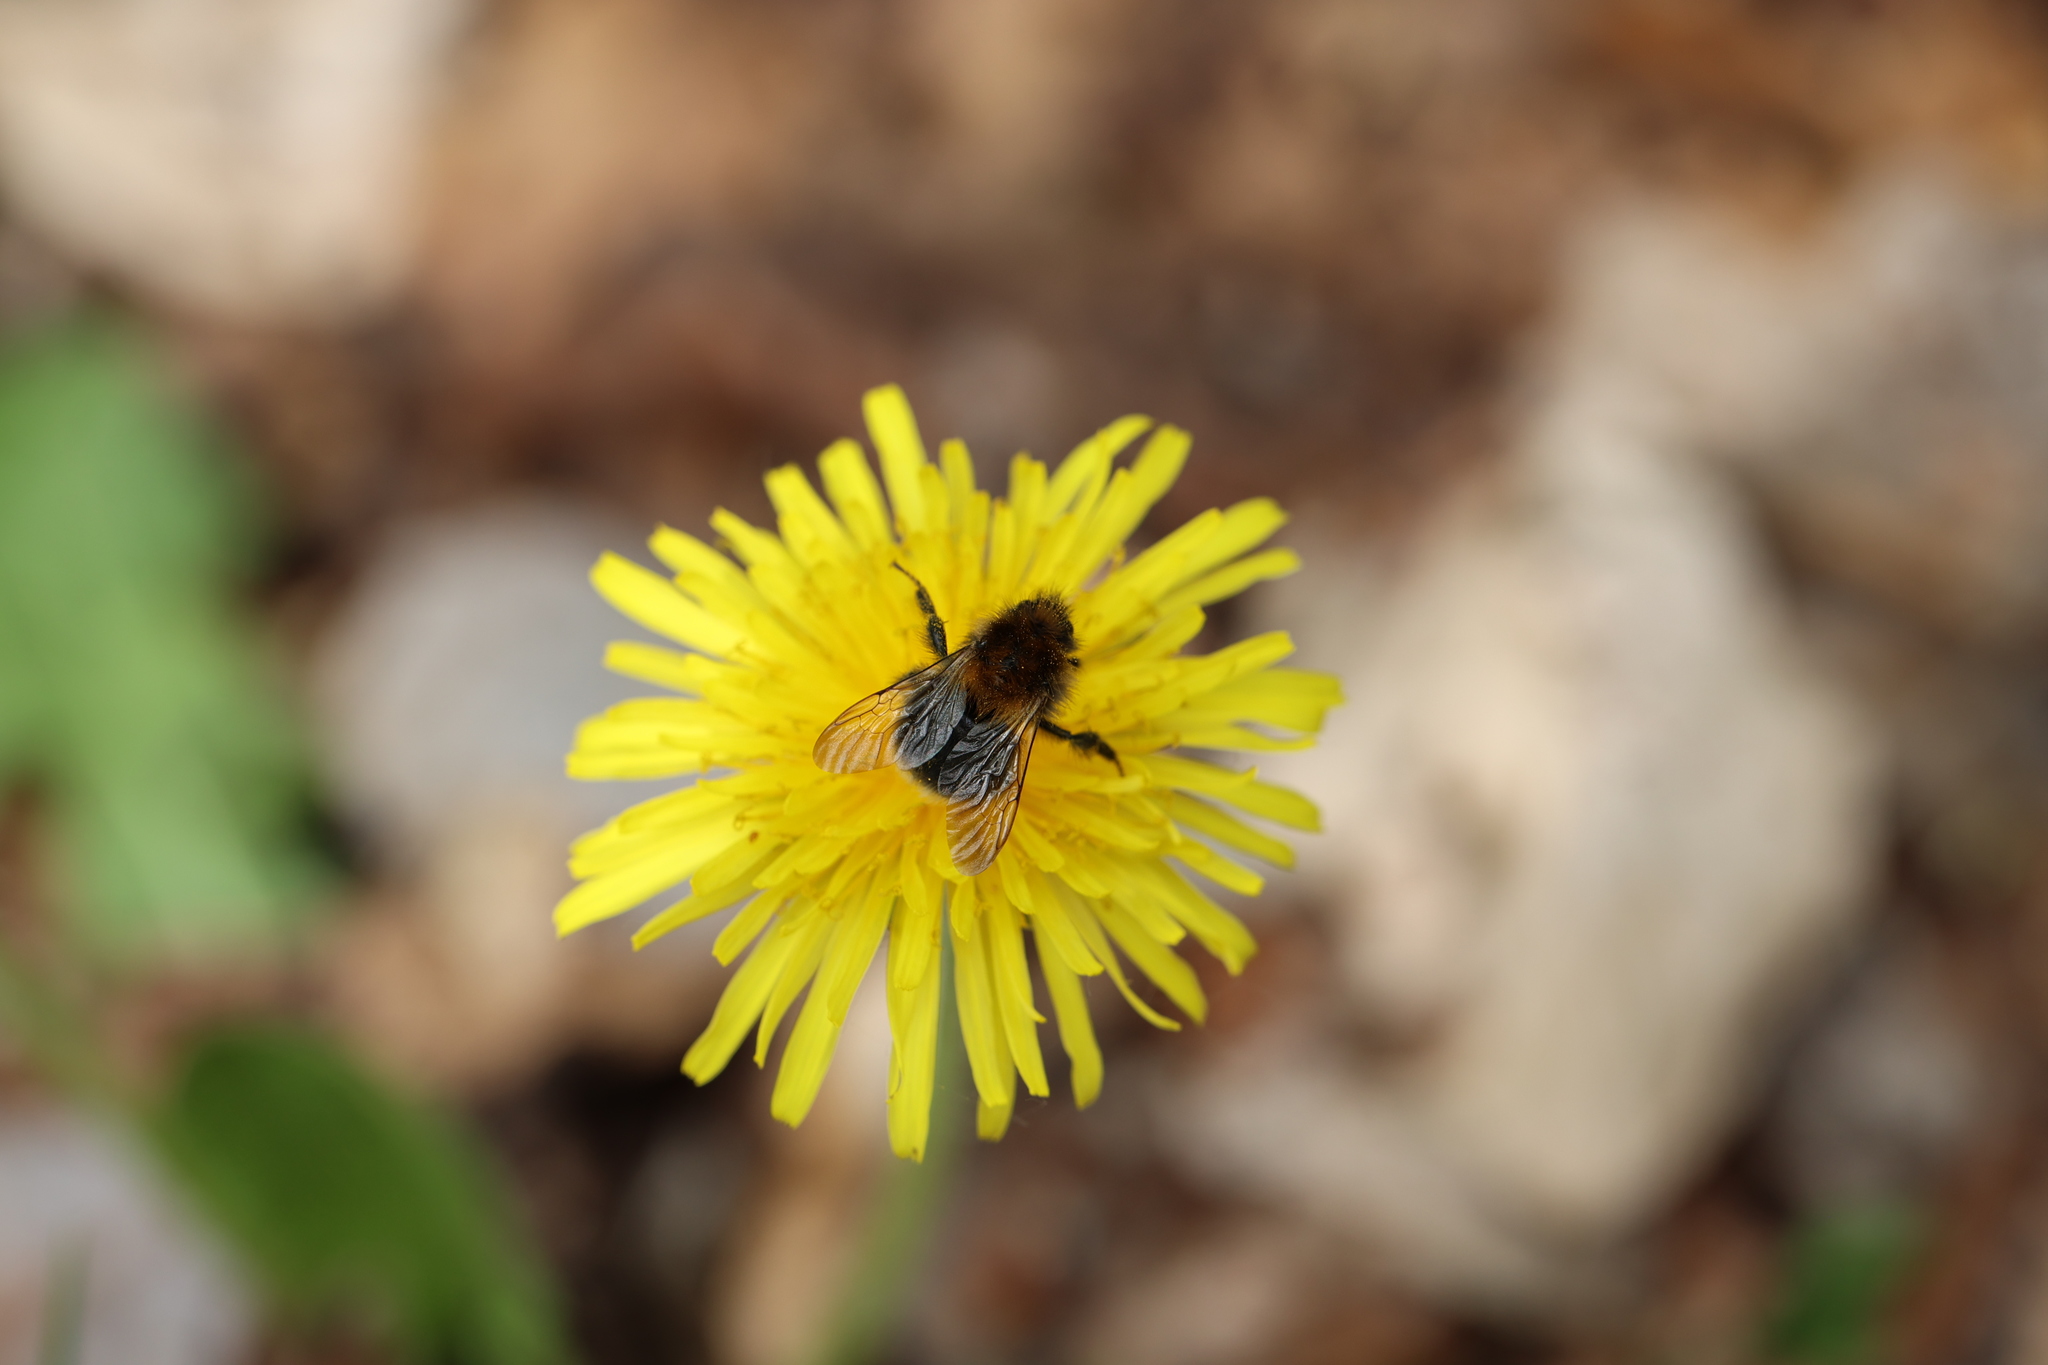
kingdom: Animalia
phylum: Arthropoda
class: Insecta
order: Hymenoptera
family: Apidae
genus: Bombus
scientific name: Bombus hypnorum
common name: New garden bumblebee
